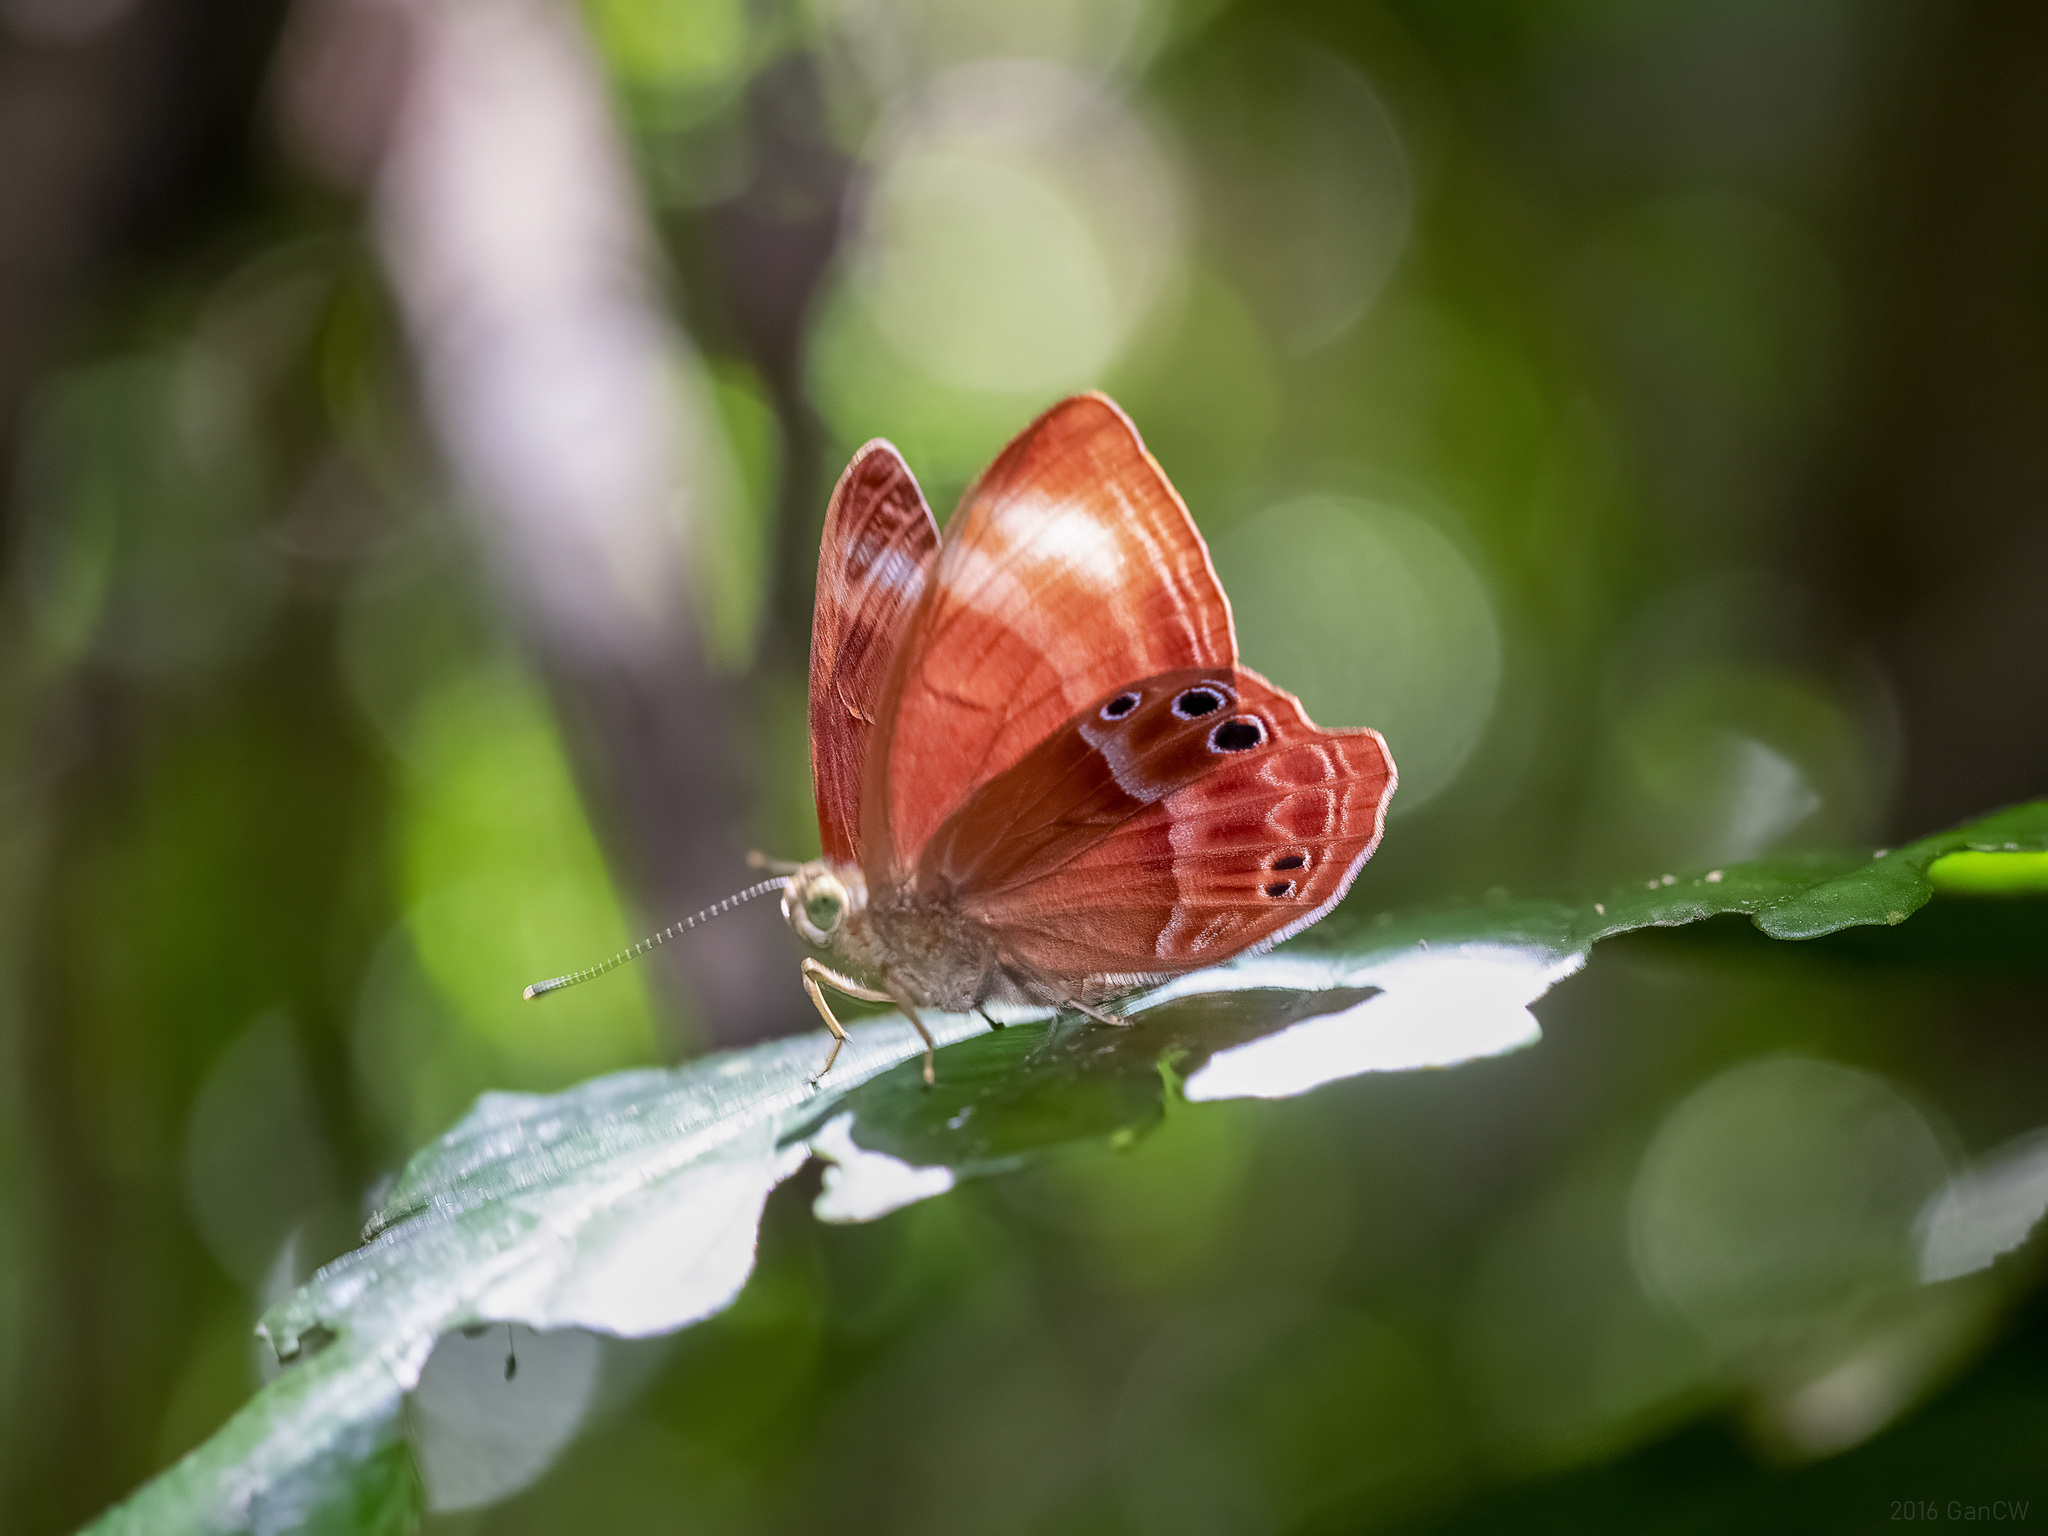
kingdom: Animalia
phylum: Arthropoda
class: Insecta
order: Lepidoptera
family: Lycaenidae
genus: Abisara
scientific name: Abisara geza
